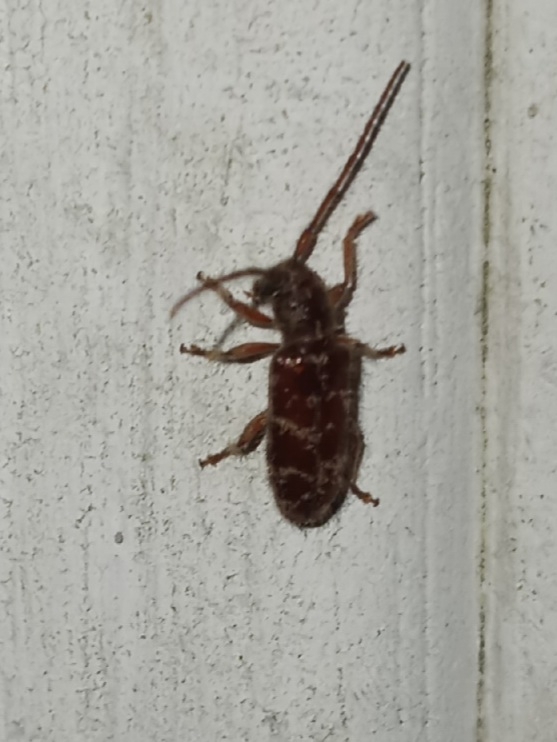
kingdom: Animalia
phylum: Arthropoda
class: Insecta
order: Coleoptera
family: Cerambycidae
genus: Eupogonius
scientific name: Eupogonius tomentosus
